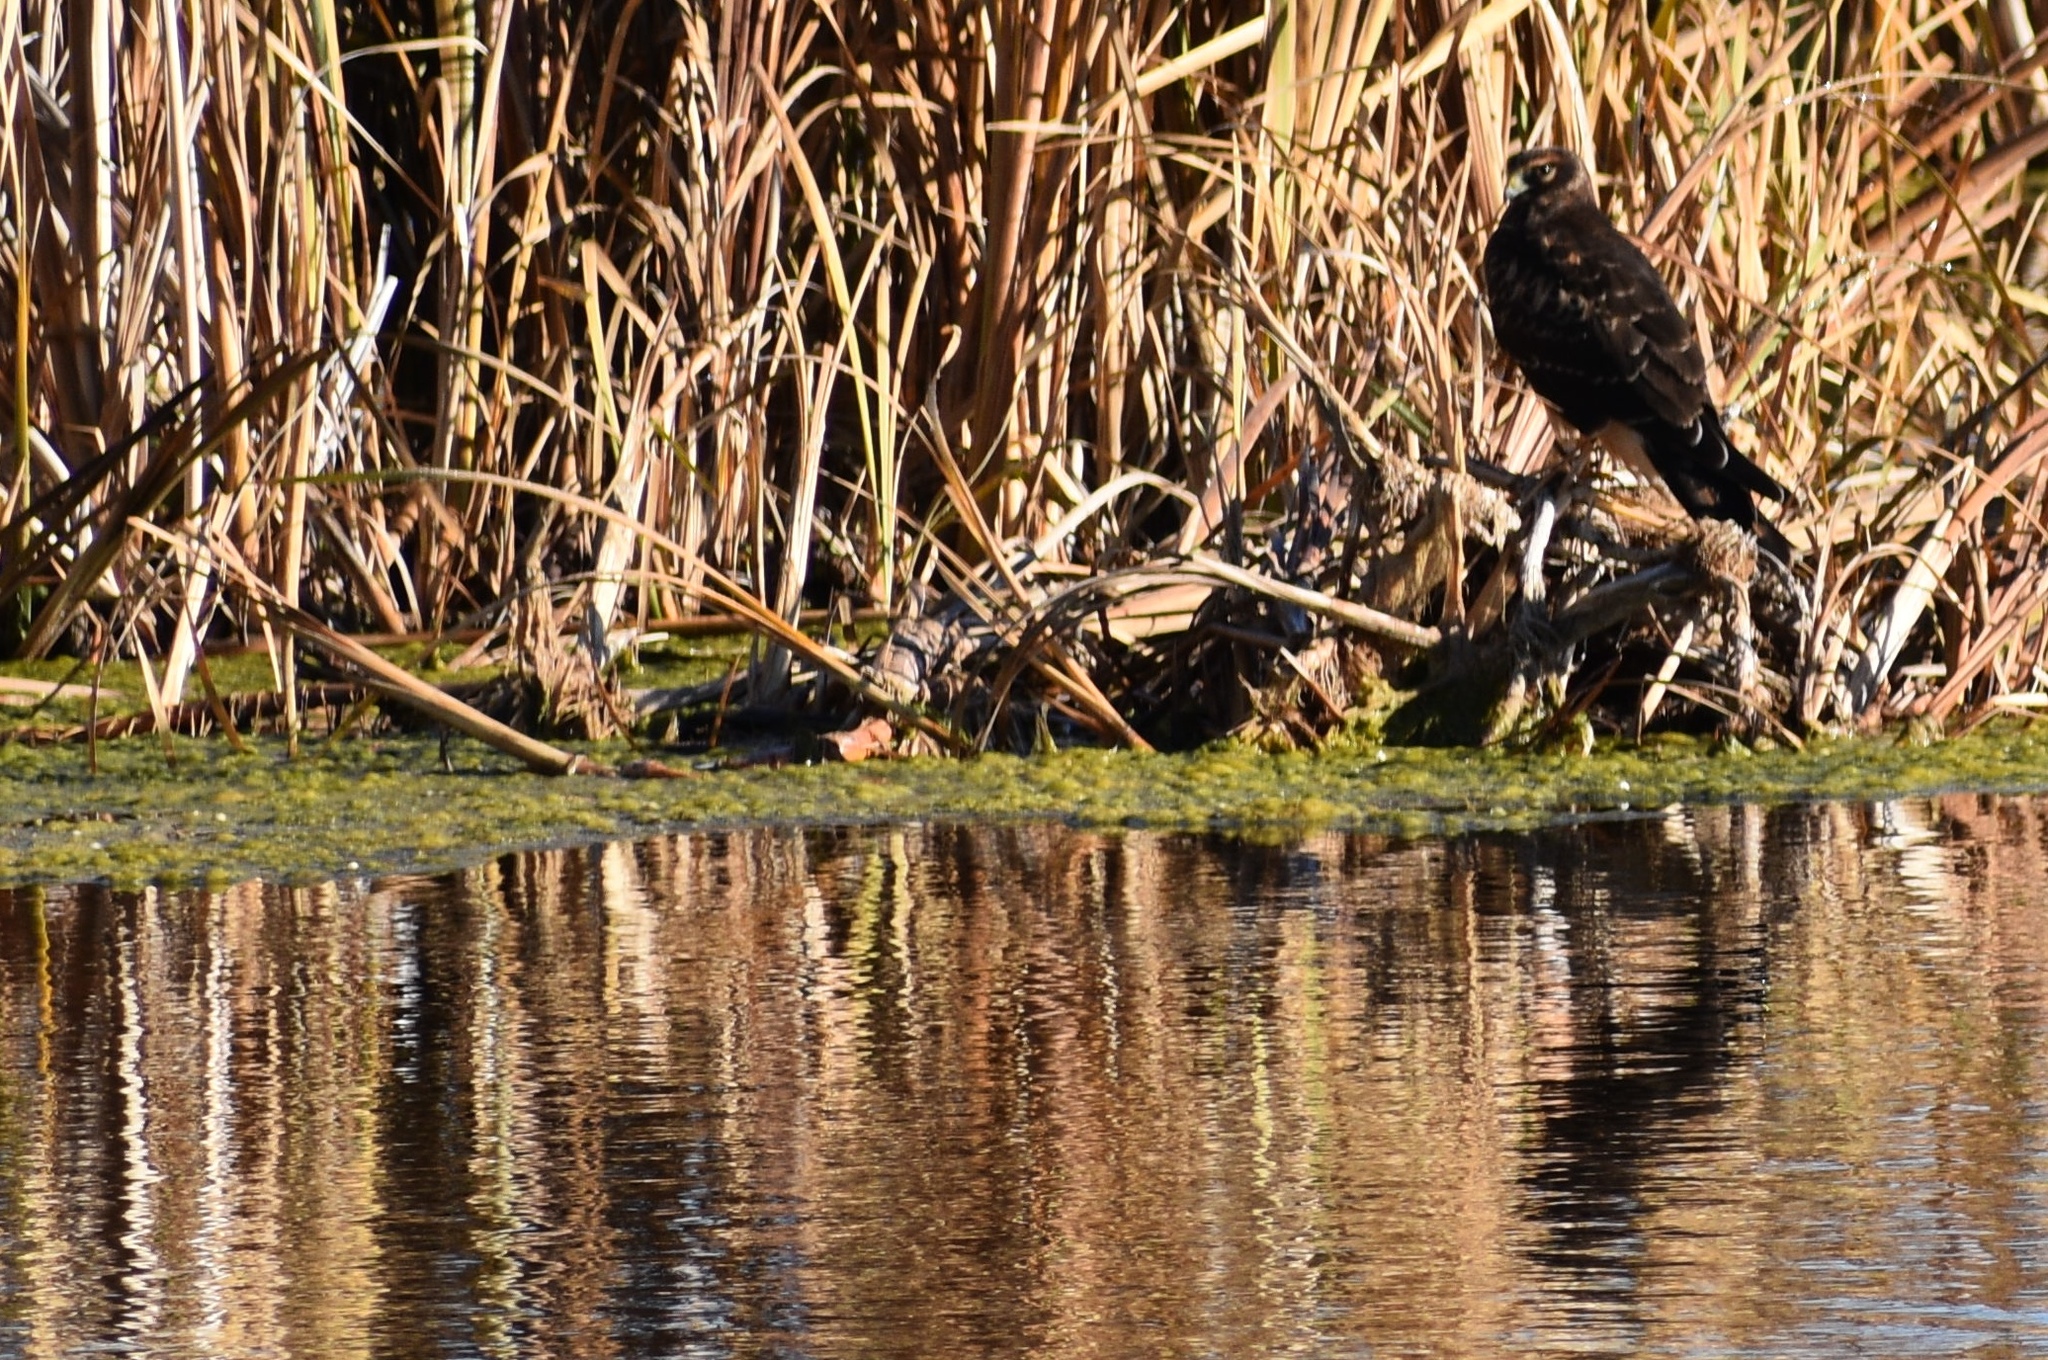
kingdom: Animalia
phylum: Chordata
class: Aves
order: Accipitriformes
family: Accipitridae
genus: Circus
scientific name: Circus cyaneus
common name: Hen harrier
